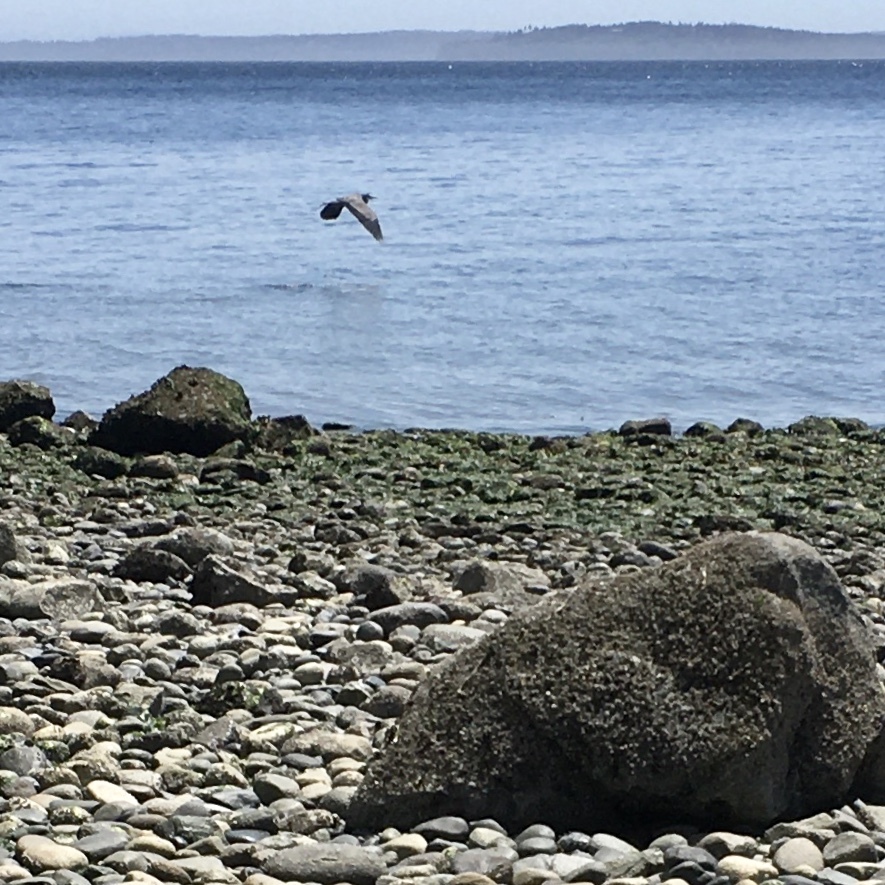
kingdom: Animalia
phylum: Chordata
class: Aves
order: Pelecaniformes
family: Ardeidae
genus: Ardea
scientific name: Ardea herodias
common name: Great blue heron
